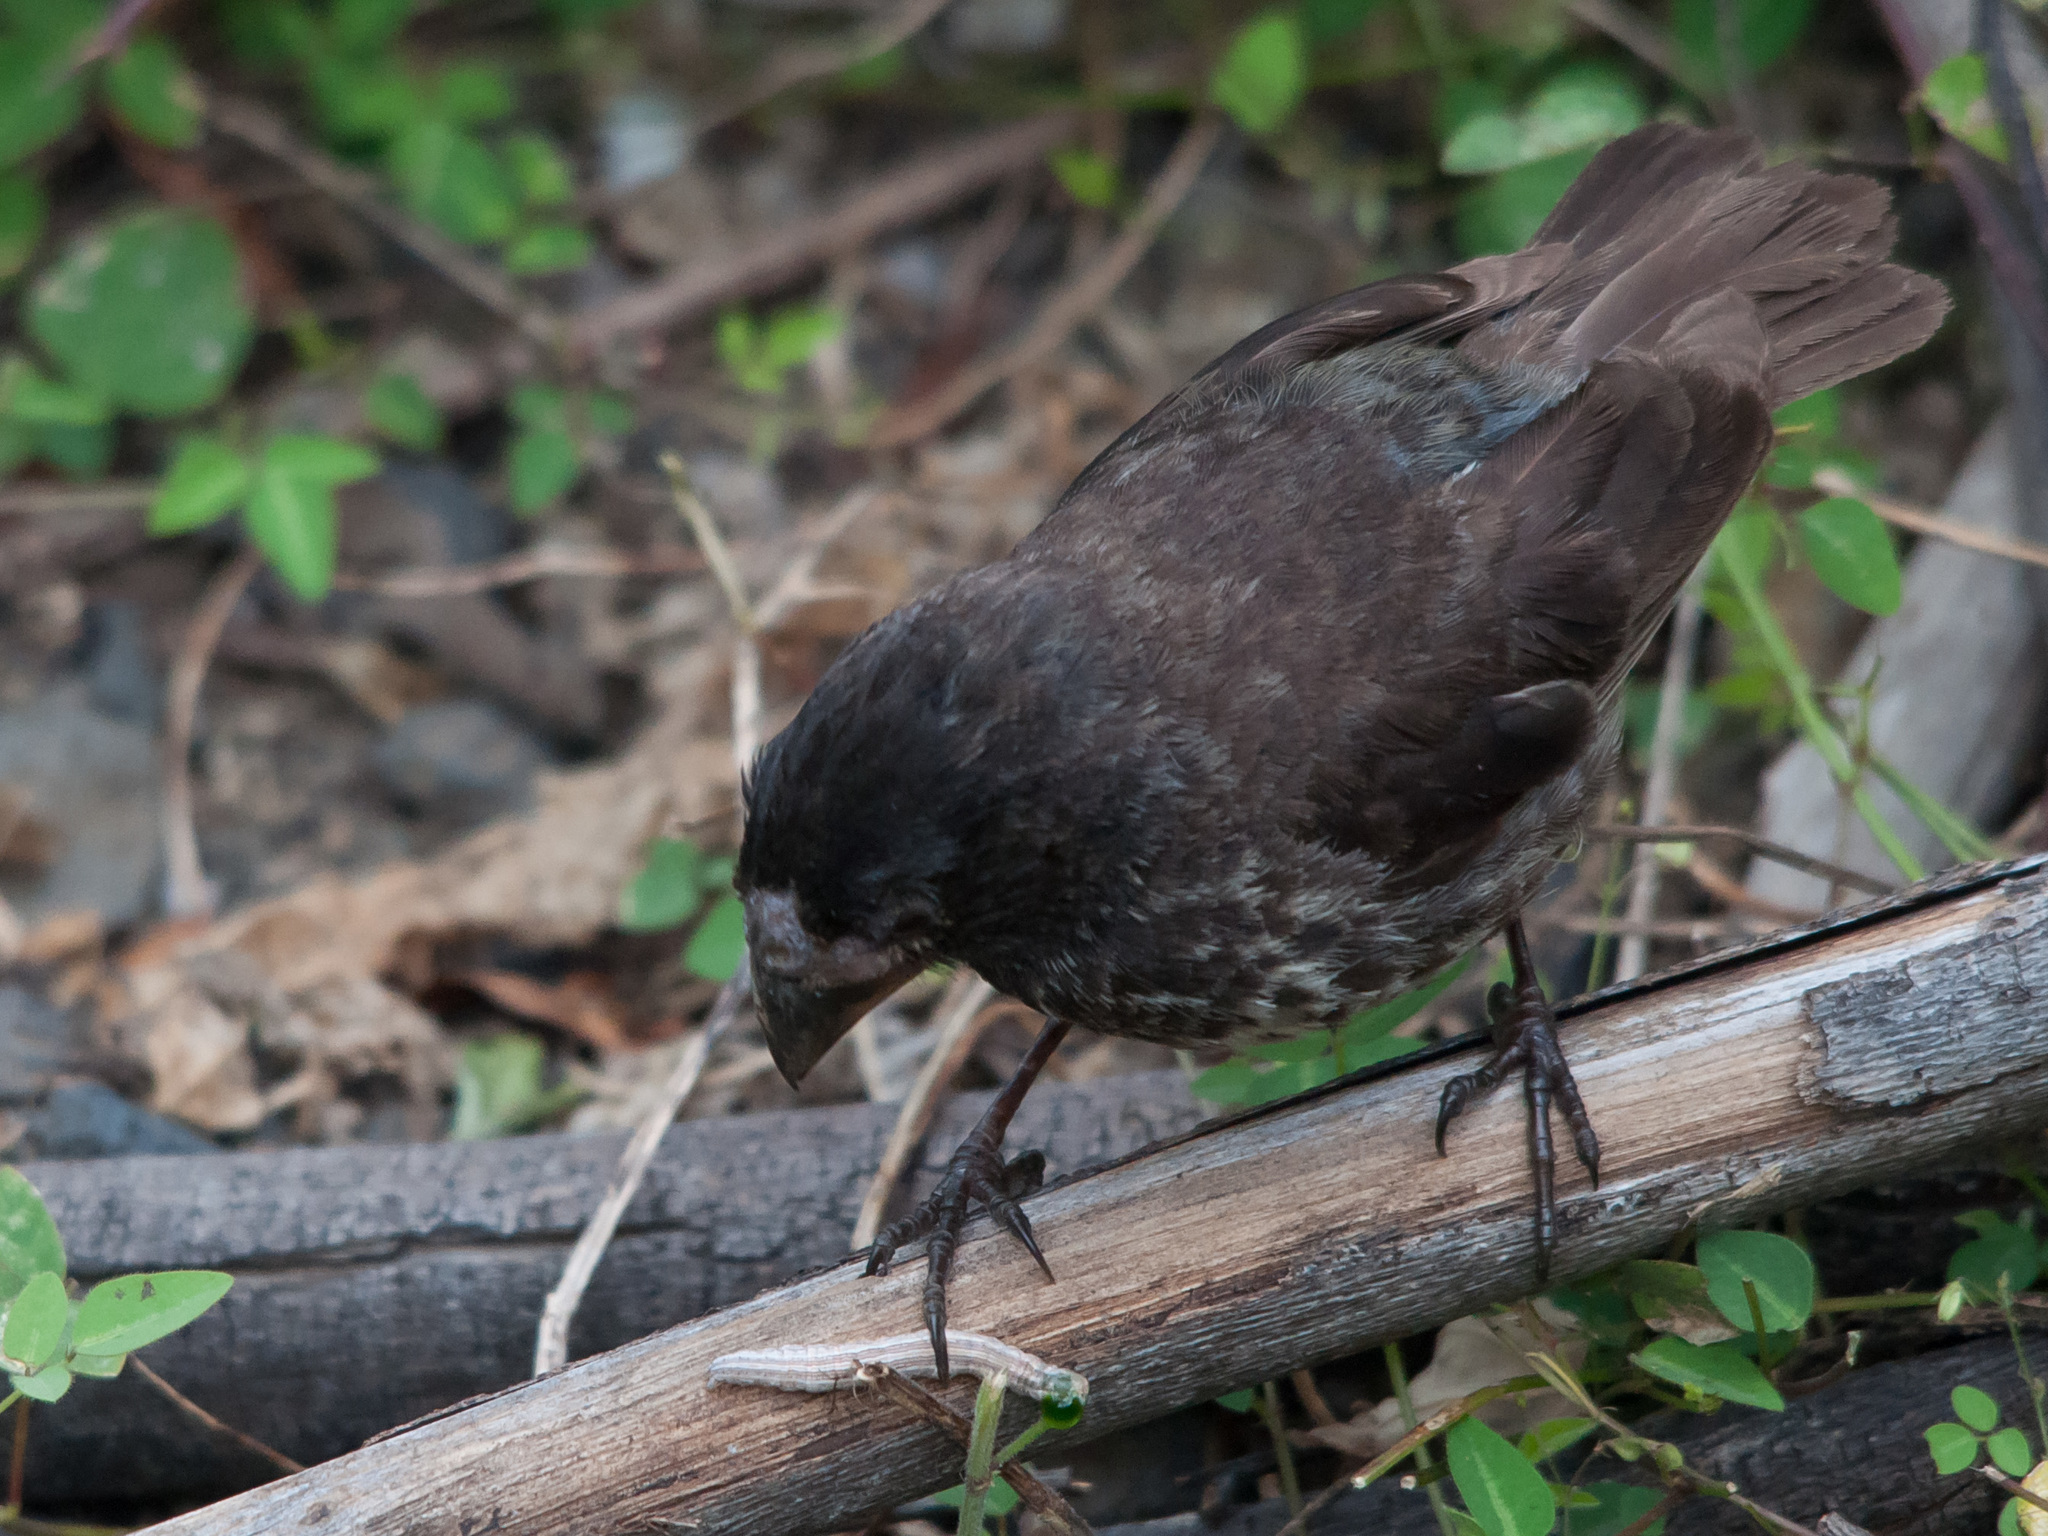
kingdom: Animalia
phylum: Chordata
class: Aves
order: Passeriformes
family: Thraupidae
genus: Geospiza
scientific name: Geospiza magnirostris
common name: Large ground-finch
